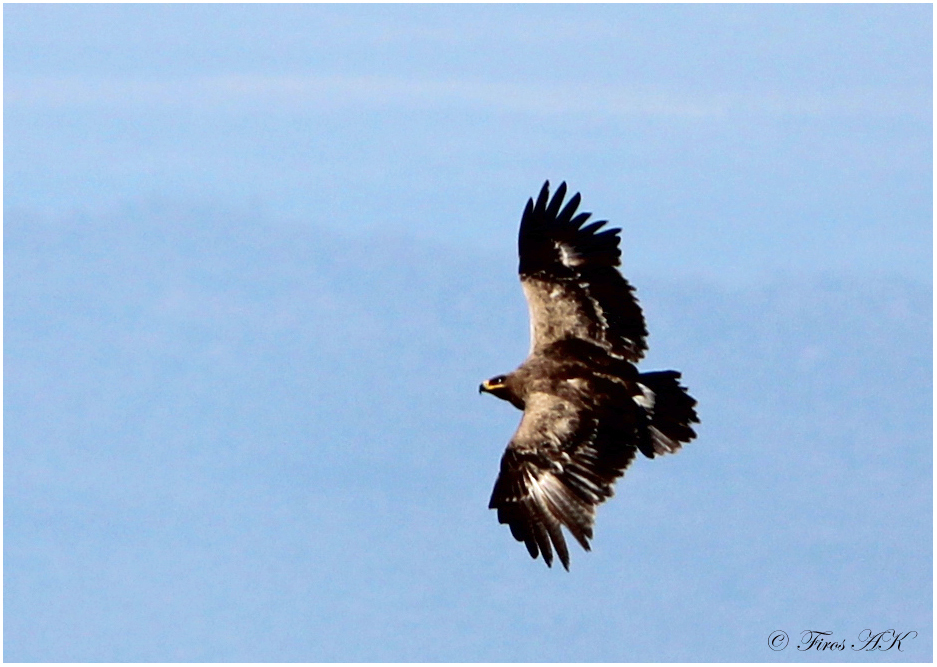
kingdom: Animalia
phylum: Chordata
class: Aves
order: Accipitriformes
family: Accipitridae
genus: Aquila
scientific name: Aquila nipalensis
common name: Steppe eagle
